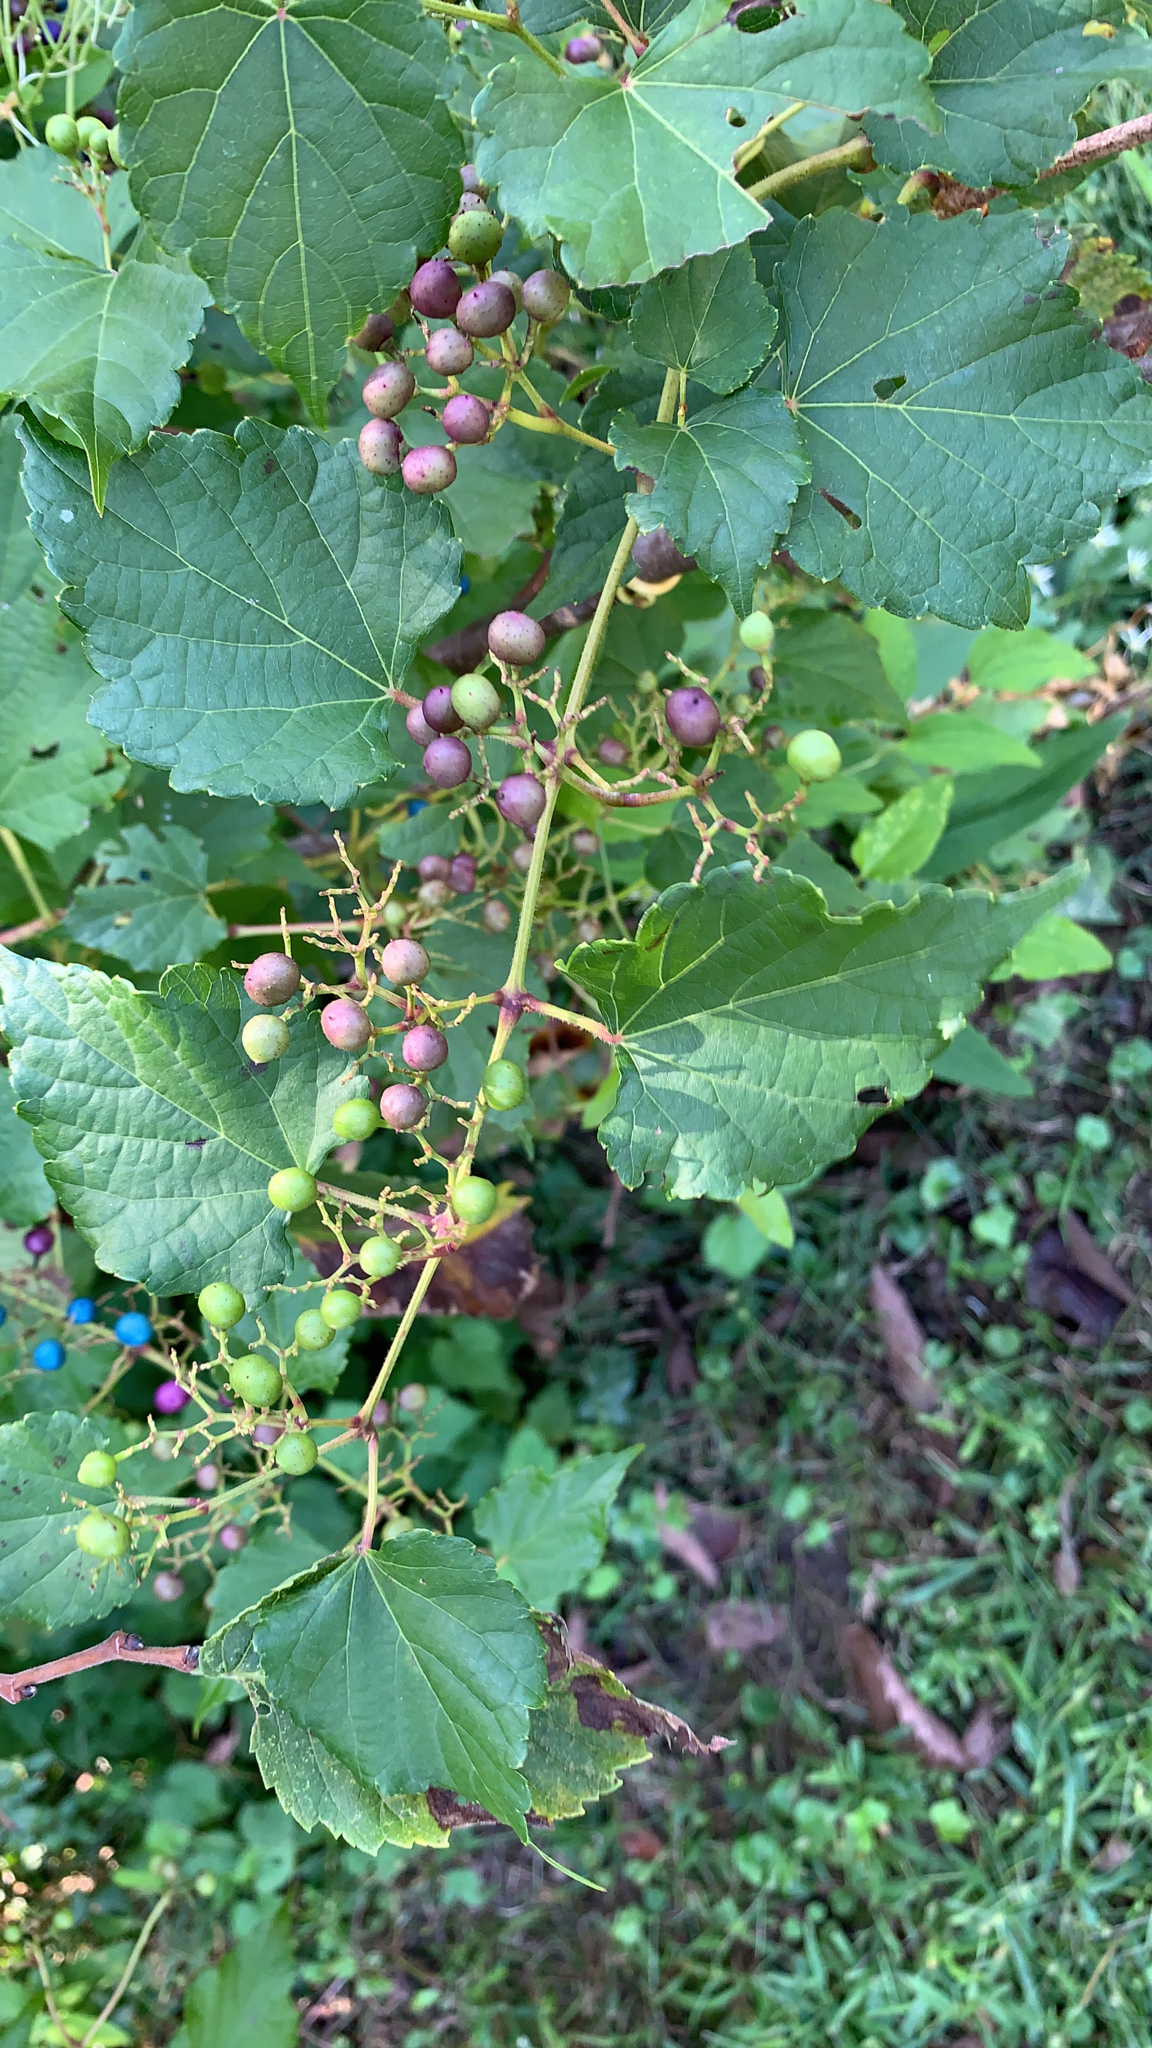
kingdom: Plantae
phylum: Tracheophyta
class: Magnoliopsida
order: Vitales
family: Vitaceae
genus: Ampelopsis
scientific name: Ampelopsis glandulosa
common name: Amur peppervine
